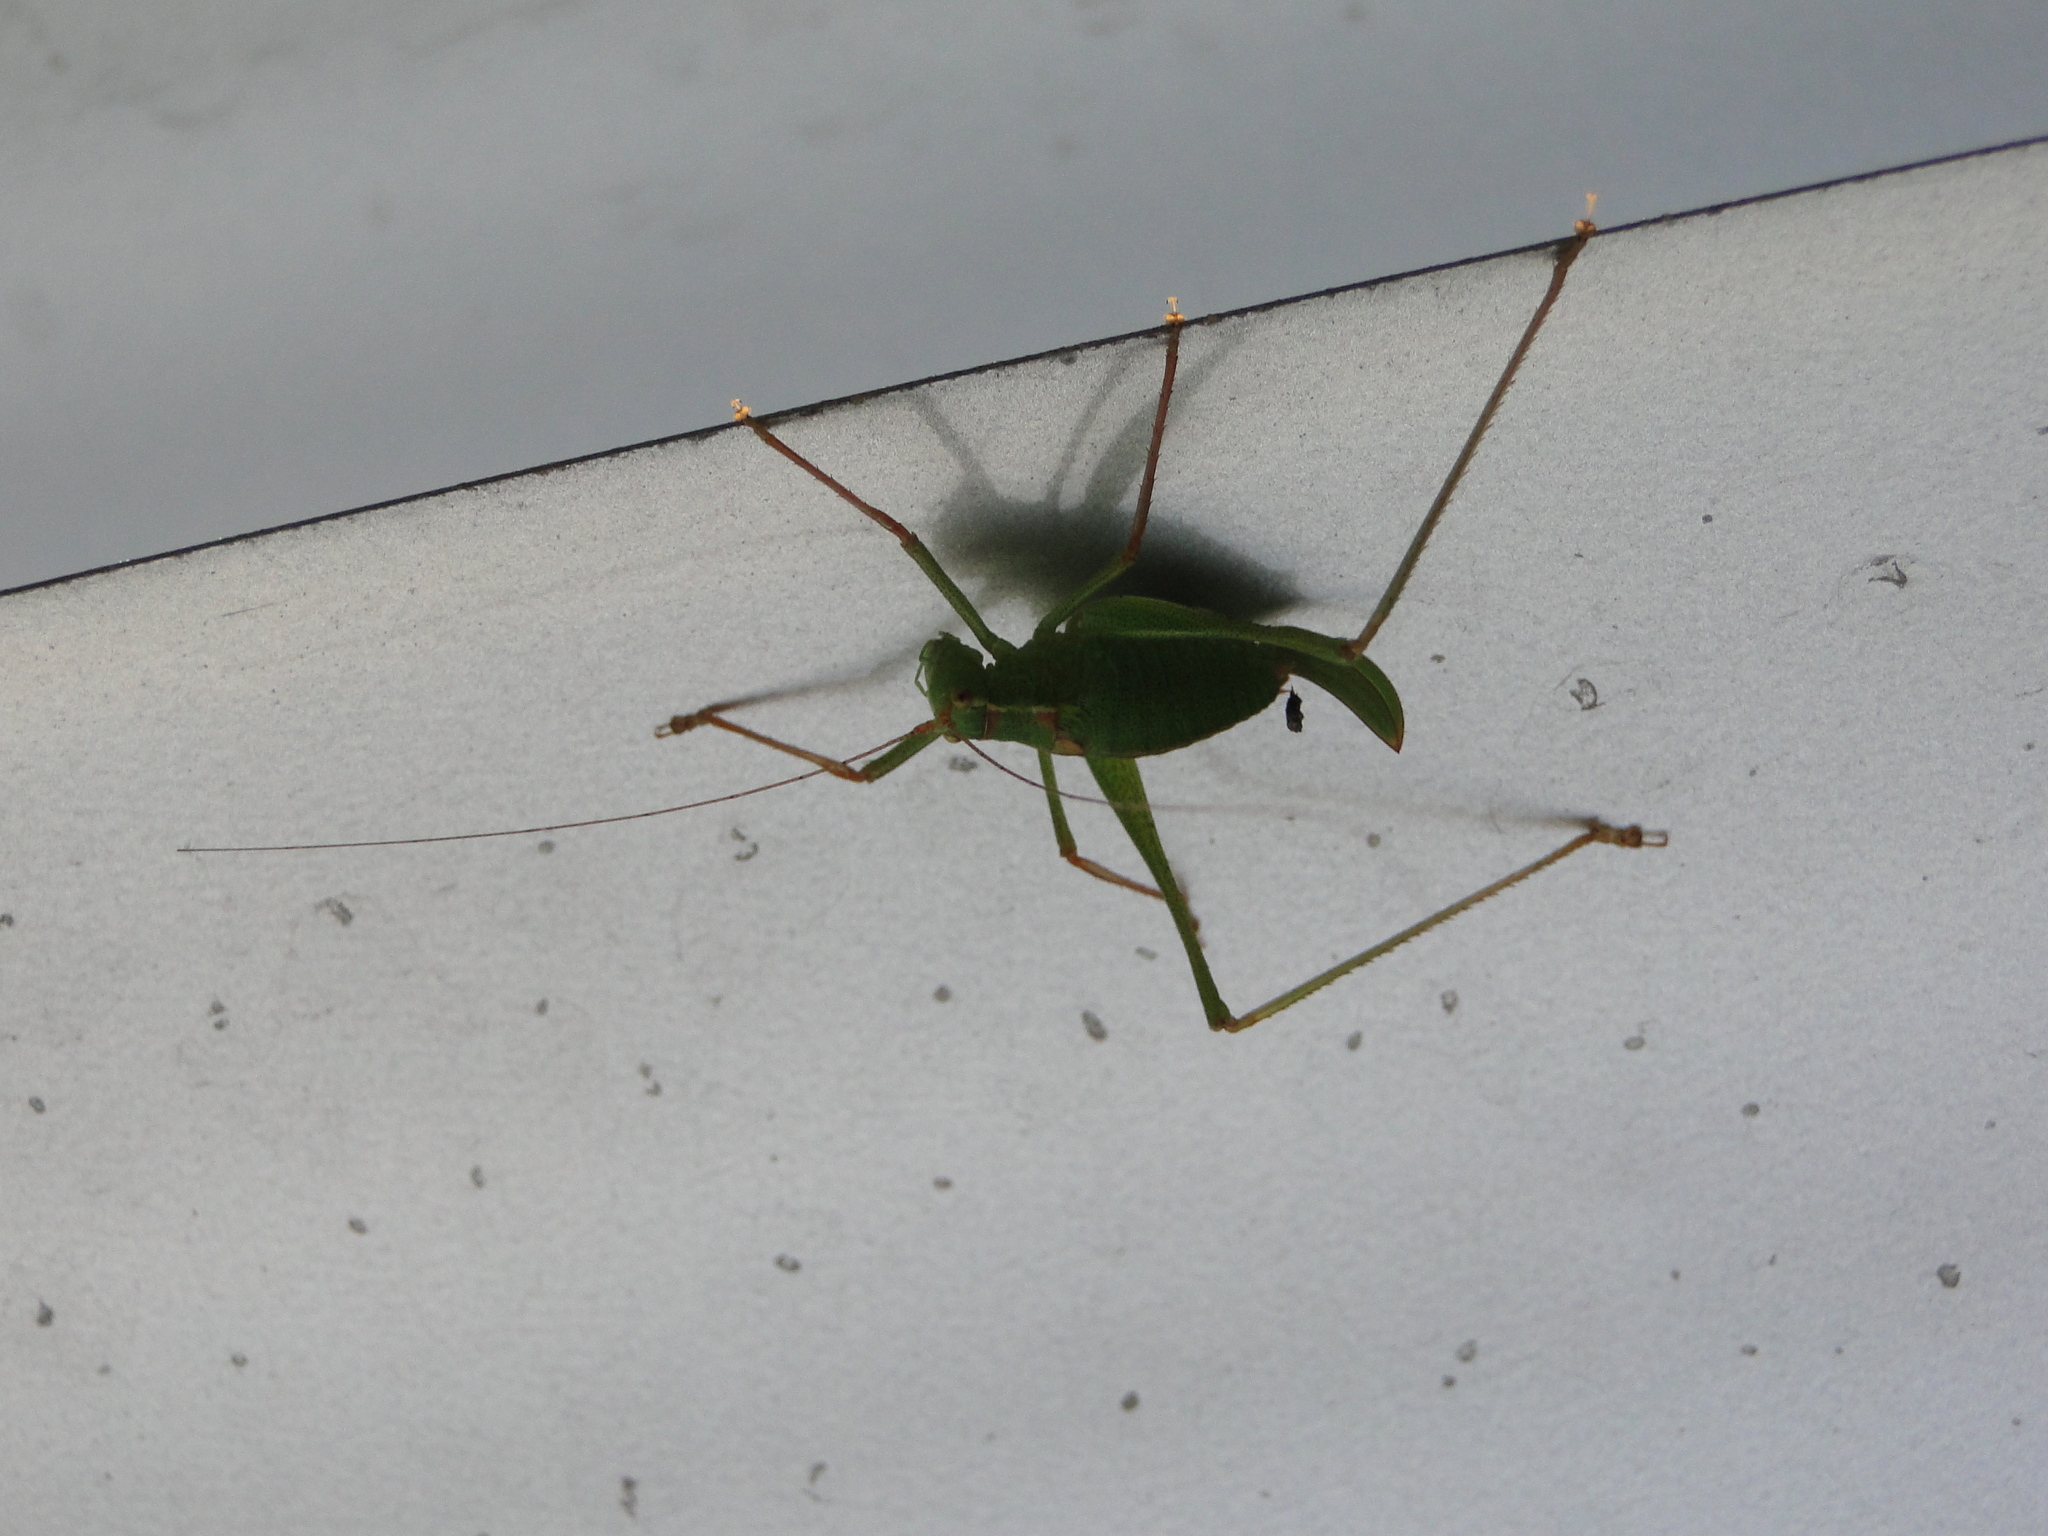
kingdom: Animalia
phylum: Arthropoda
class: Insecta
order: Orthoptera
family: Tettigoniidae
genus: Leptophyes
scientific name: Leptophyes punctatissima
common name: Speckled bush-cricket
